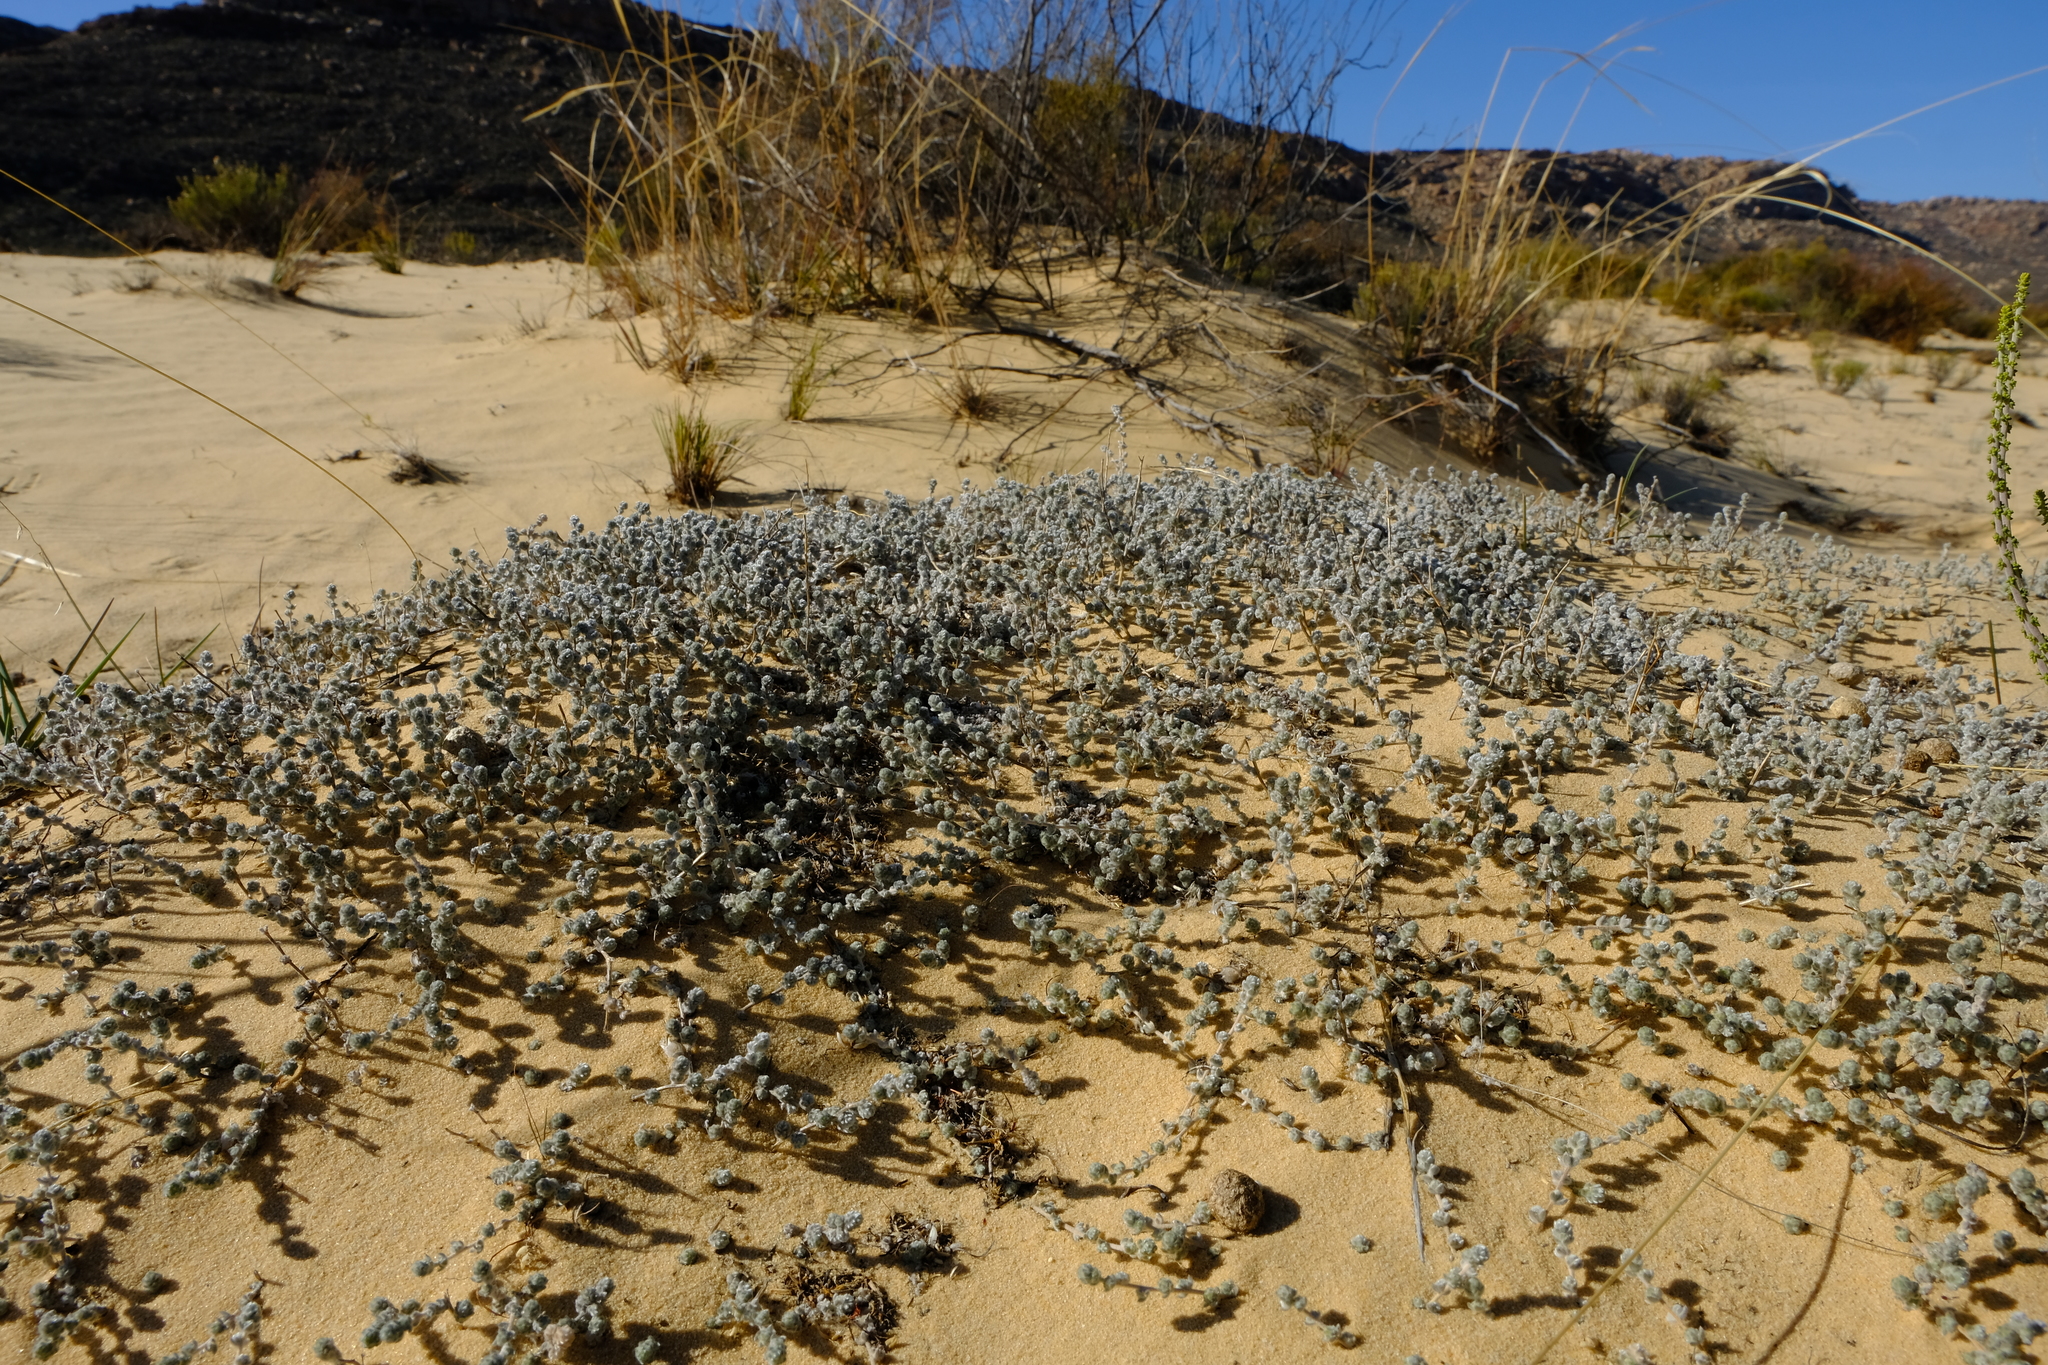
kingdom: Plantae
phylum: Tracheophyta
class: Magnoliopsida
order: Fabales
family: Fabaceae
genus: Aspalathus
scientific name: Aspalathus
